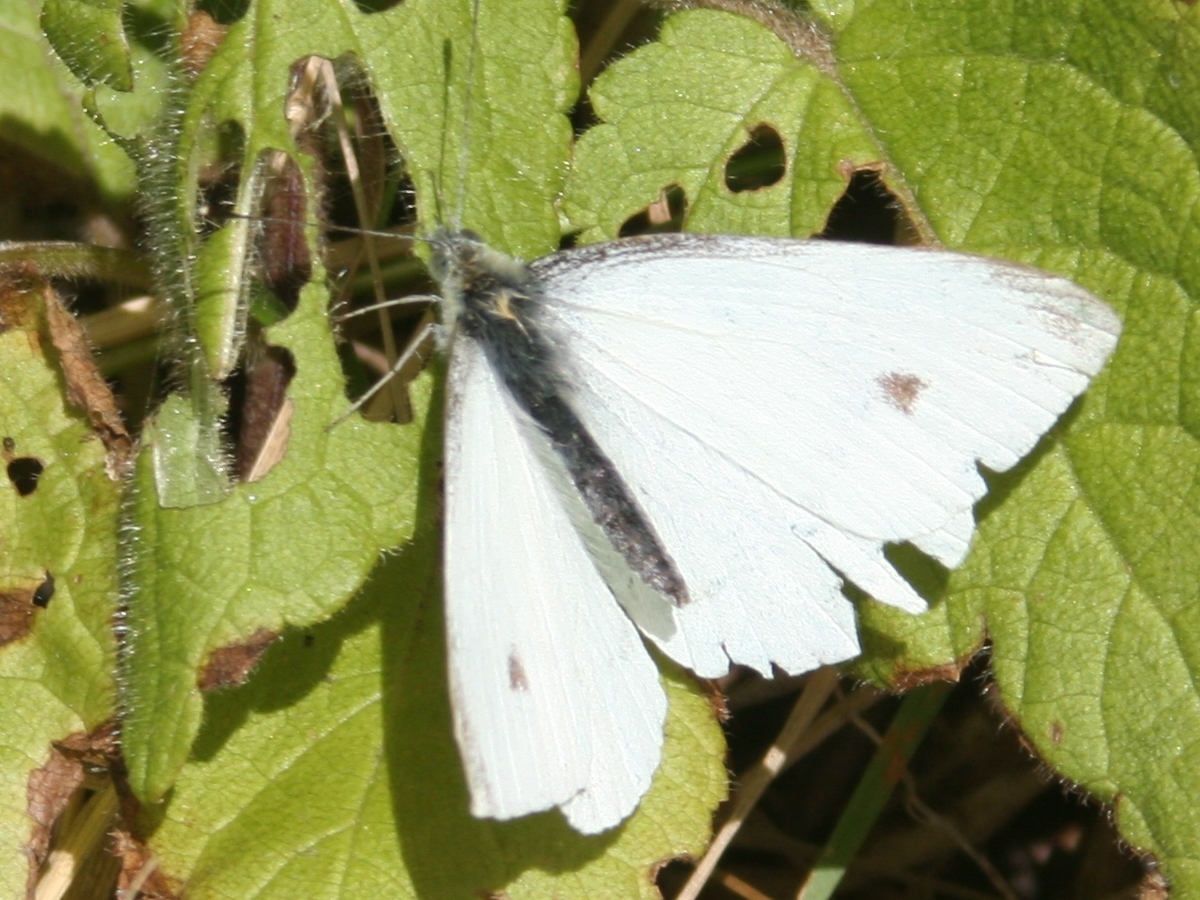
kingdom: Animalia
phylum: Arthropoda
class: Insecta
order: Lepidoptera
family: Pieridae
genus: Pieris
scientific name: Pieris rapae
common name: Small white
